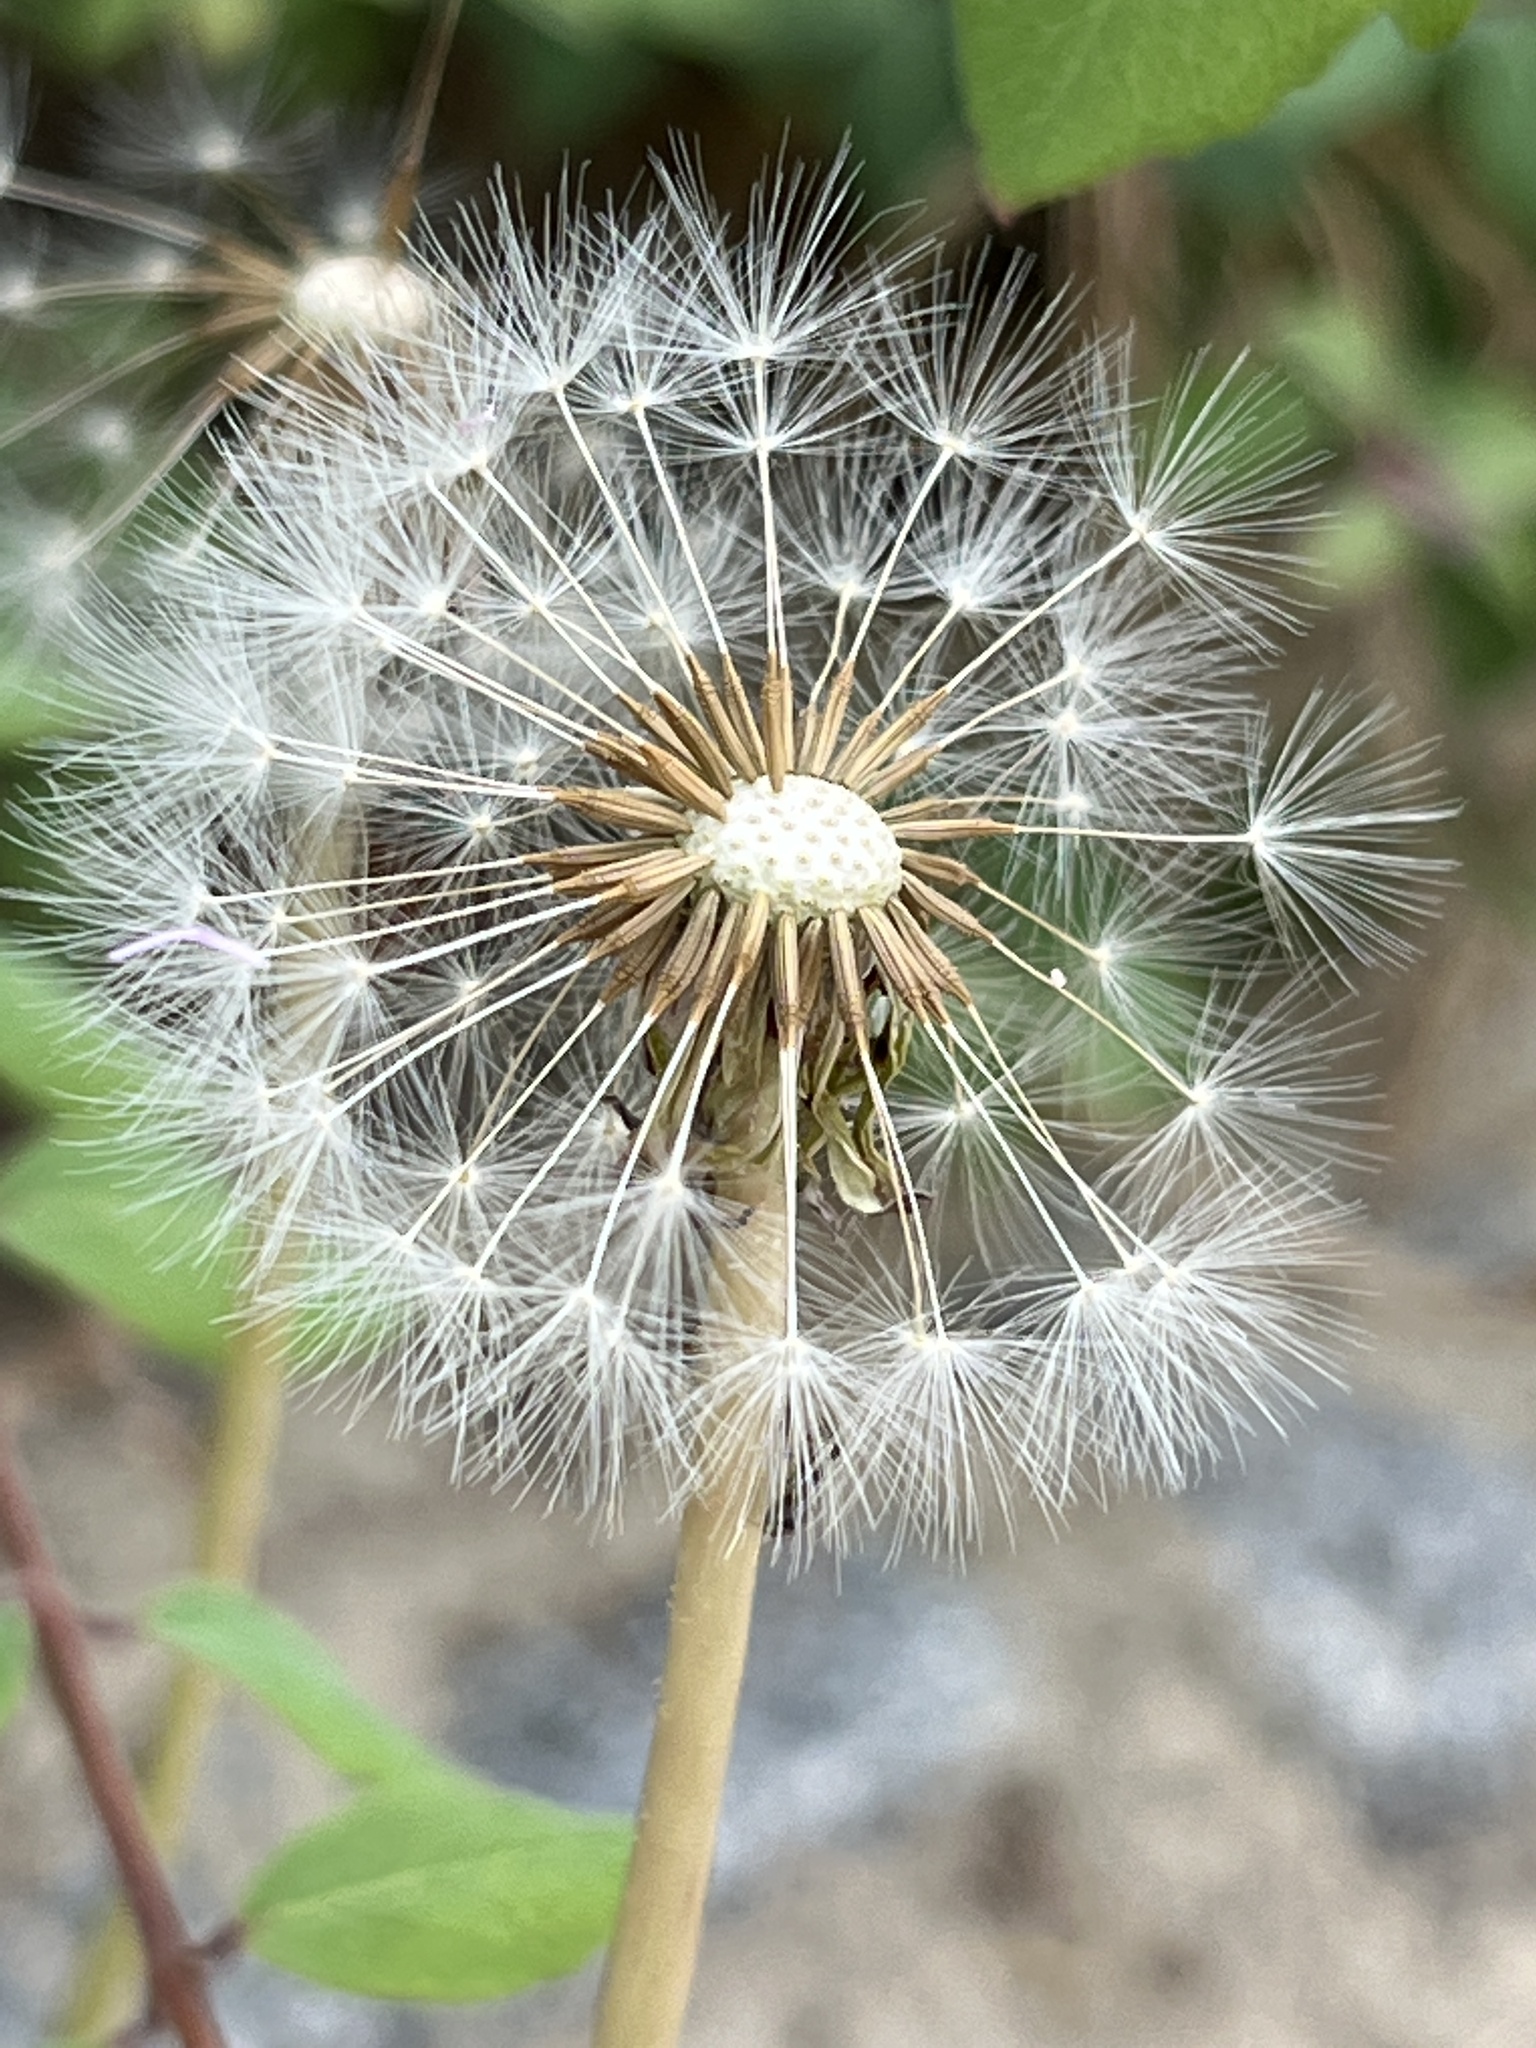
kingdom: Plantae
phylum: Tracheophyta
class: Magnoliopsida
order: Asterales
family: Asteraceae
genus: Taraxacum
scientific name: Taraxacum officinale
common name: Common dandelion
